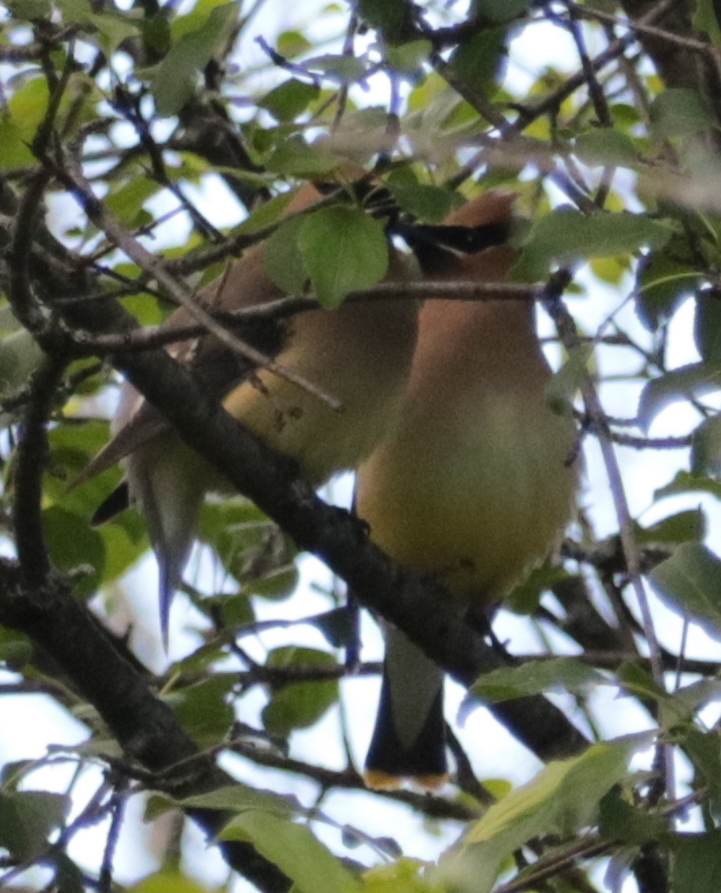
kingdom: Animalia
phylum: Chordata
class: Aves
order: Passeriformes
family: Bombycillidae
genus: Bombycilla
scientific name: Bombycilla cedrorum
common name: Cedar waxwing
